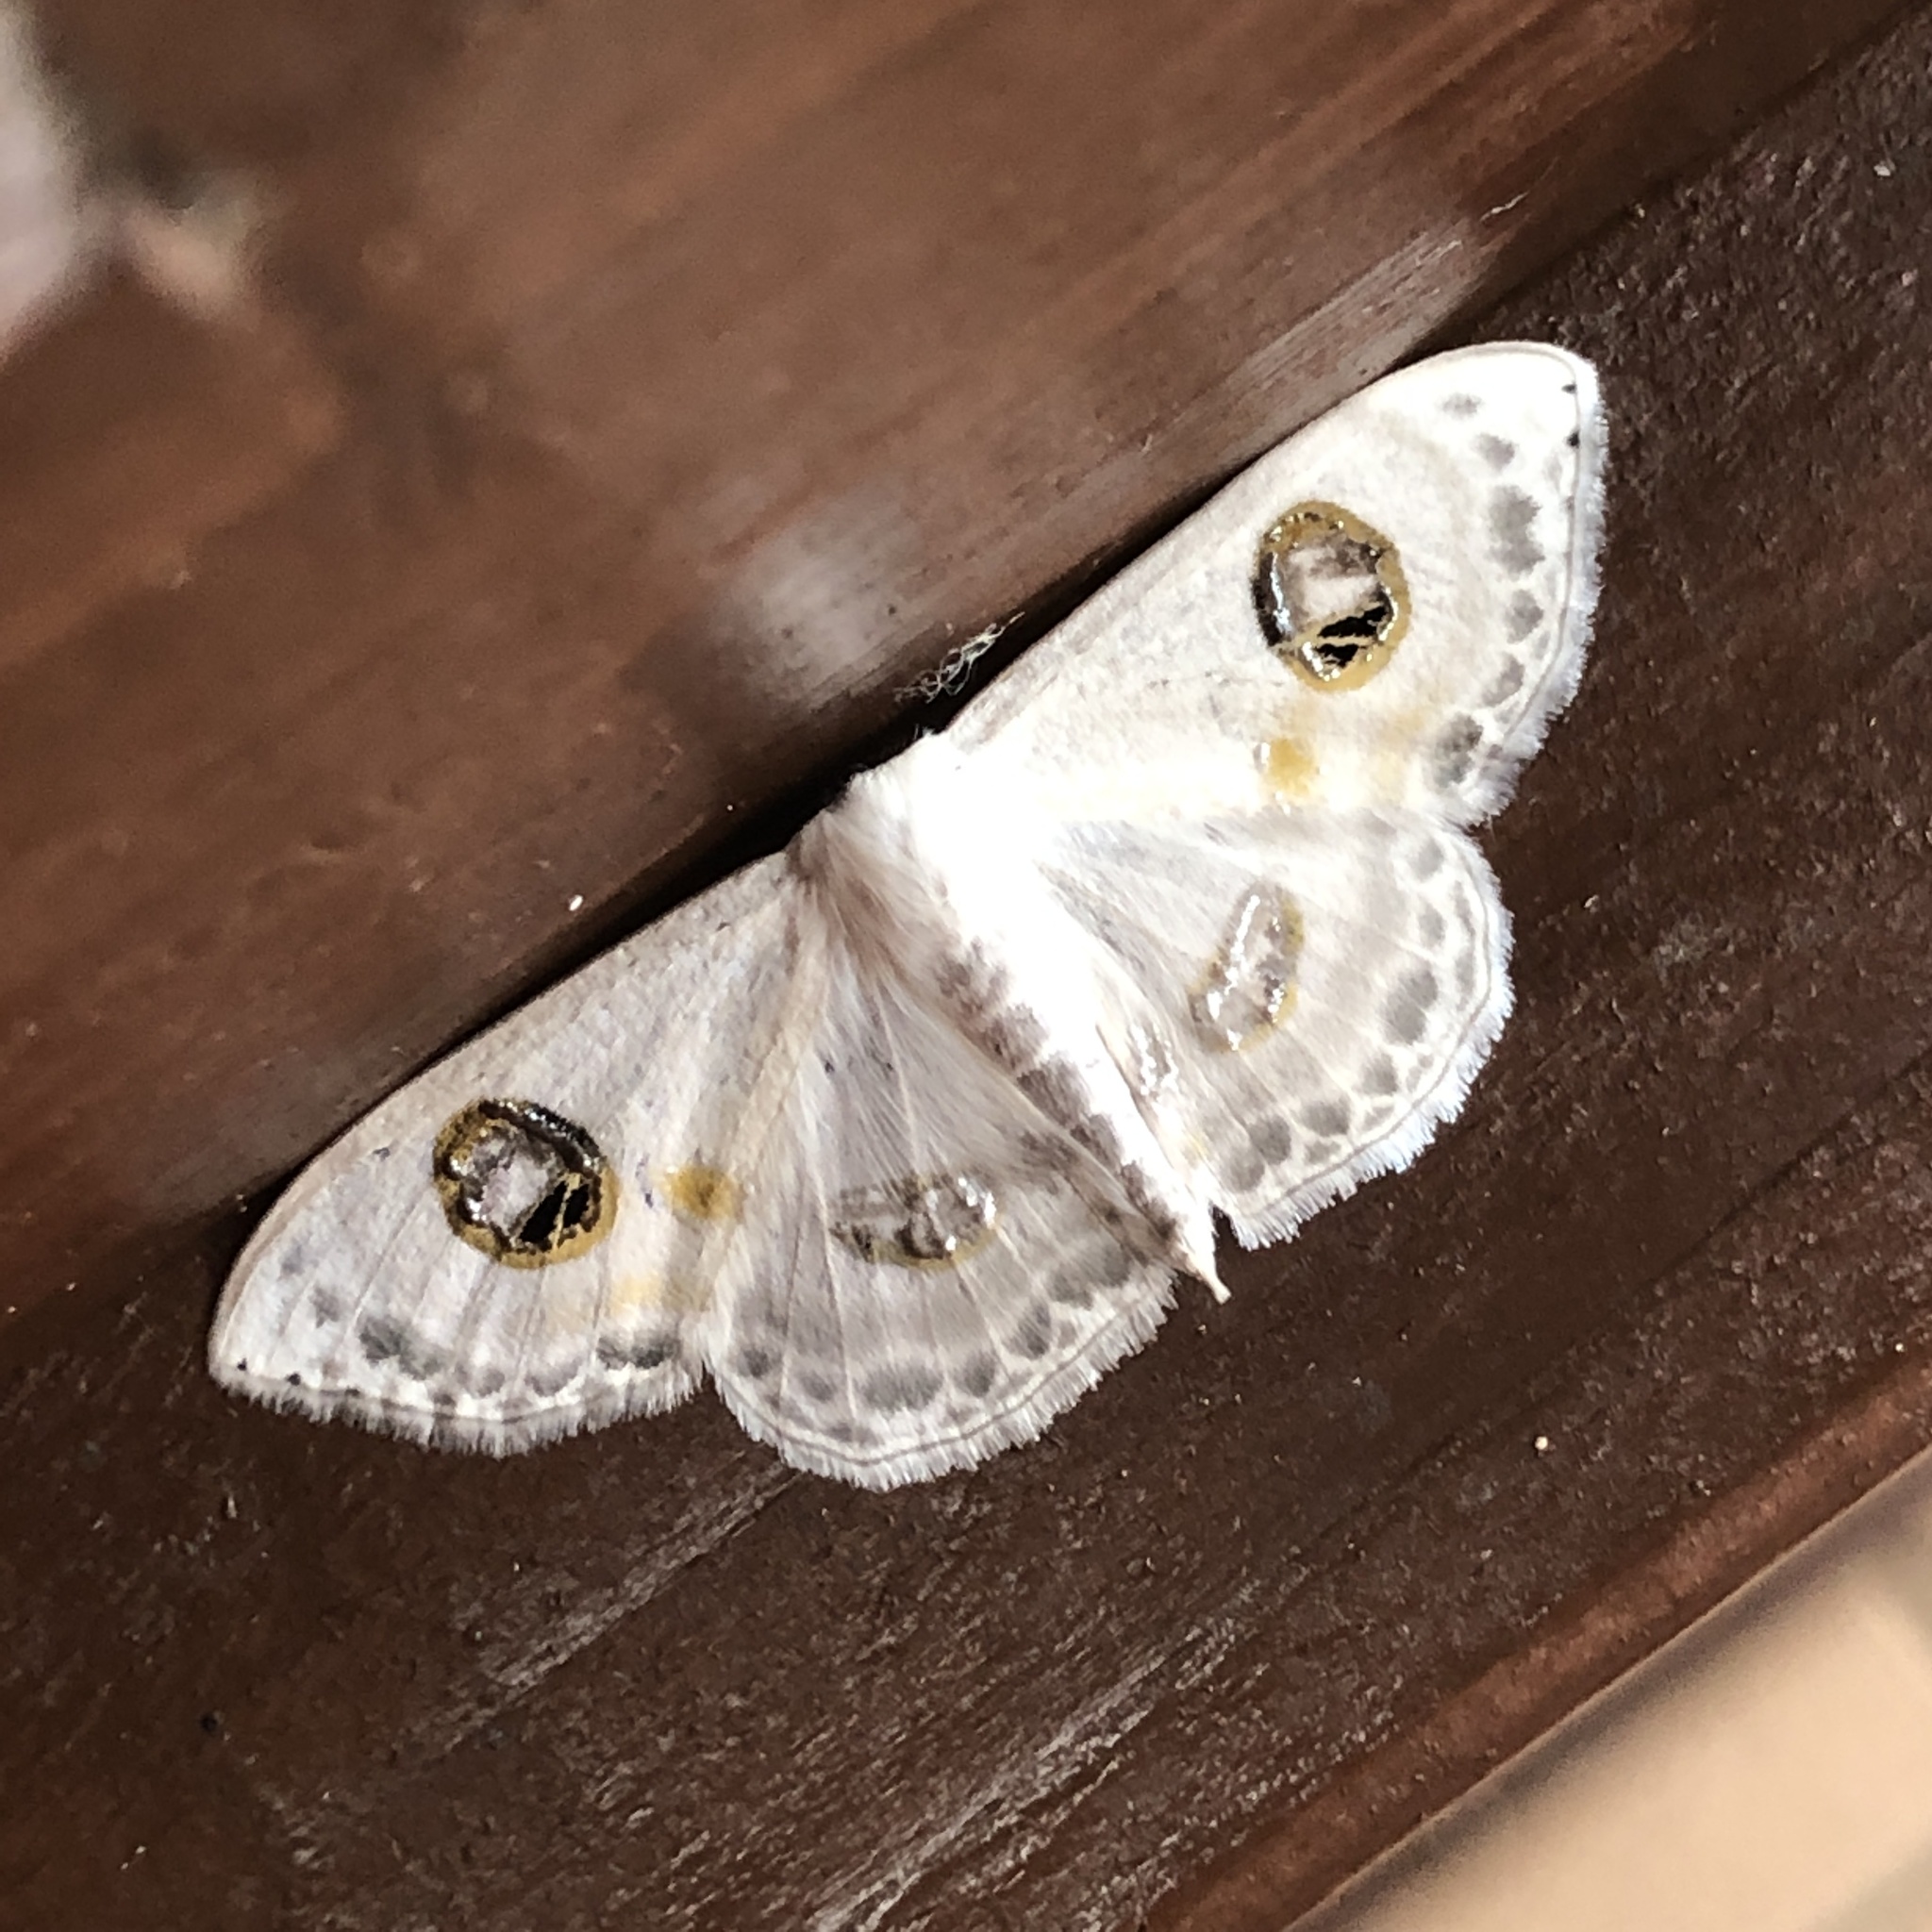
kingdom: Animalia
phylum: Arthropoda
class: Insecta
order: Lepidoptera
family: Geometridae
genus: Problepsis
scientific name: Problepsis albidior
